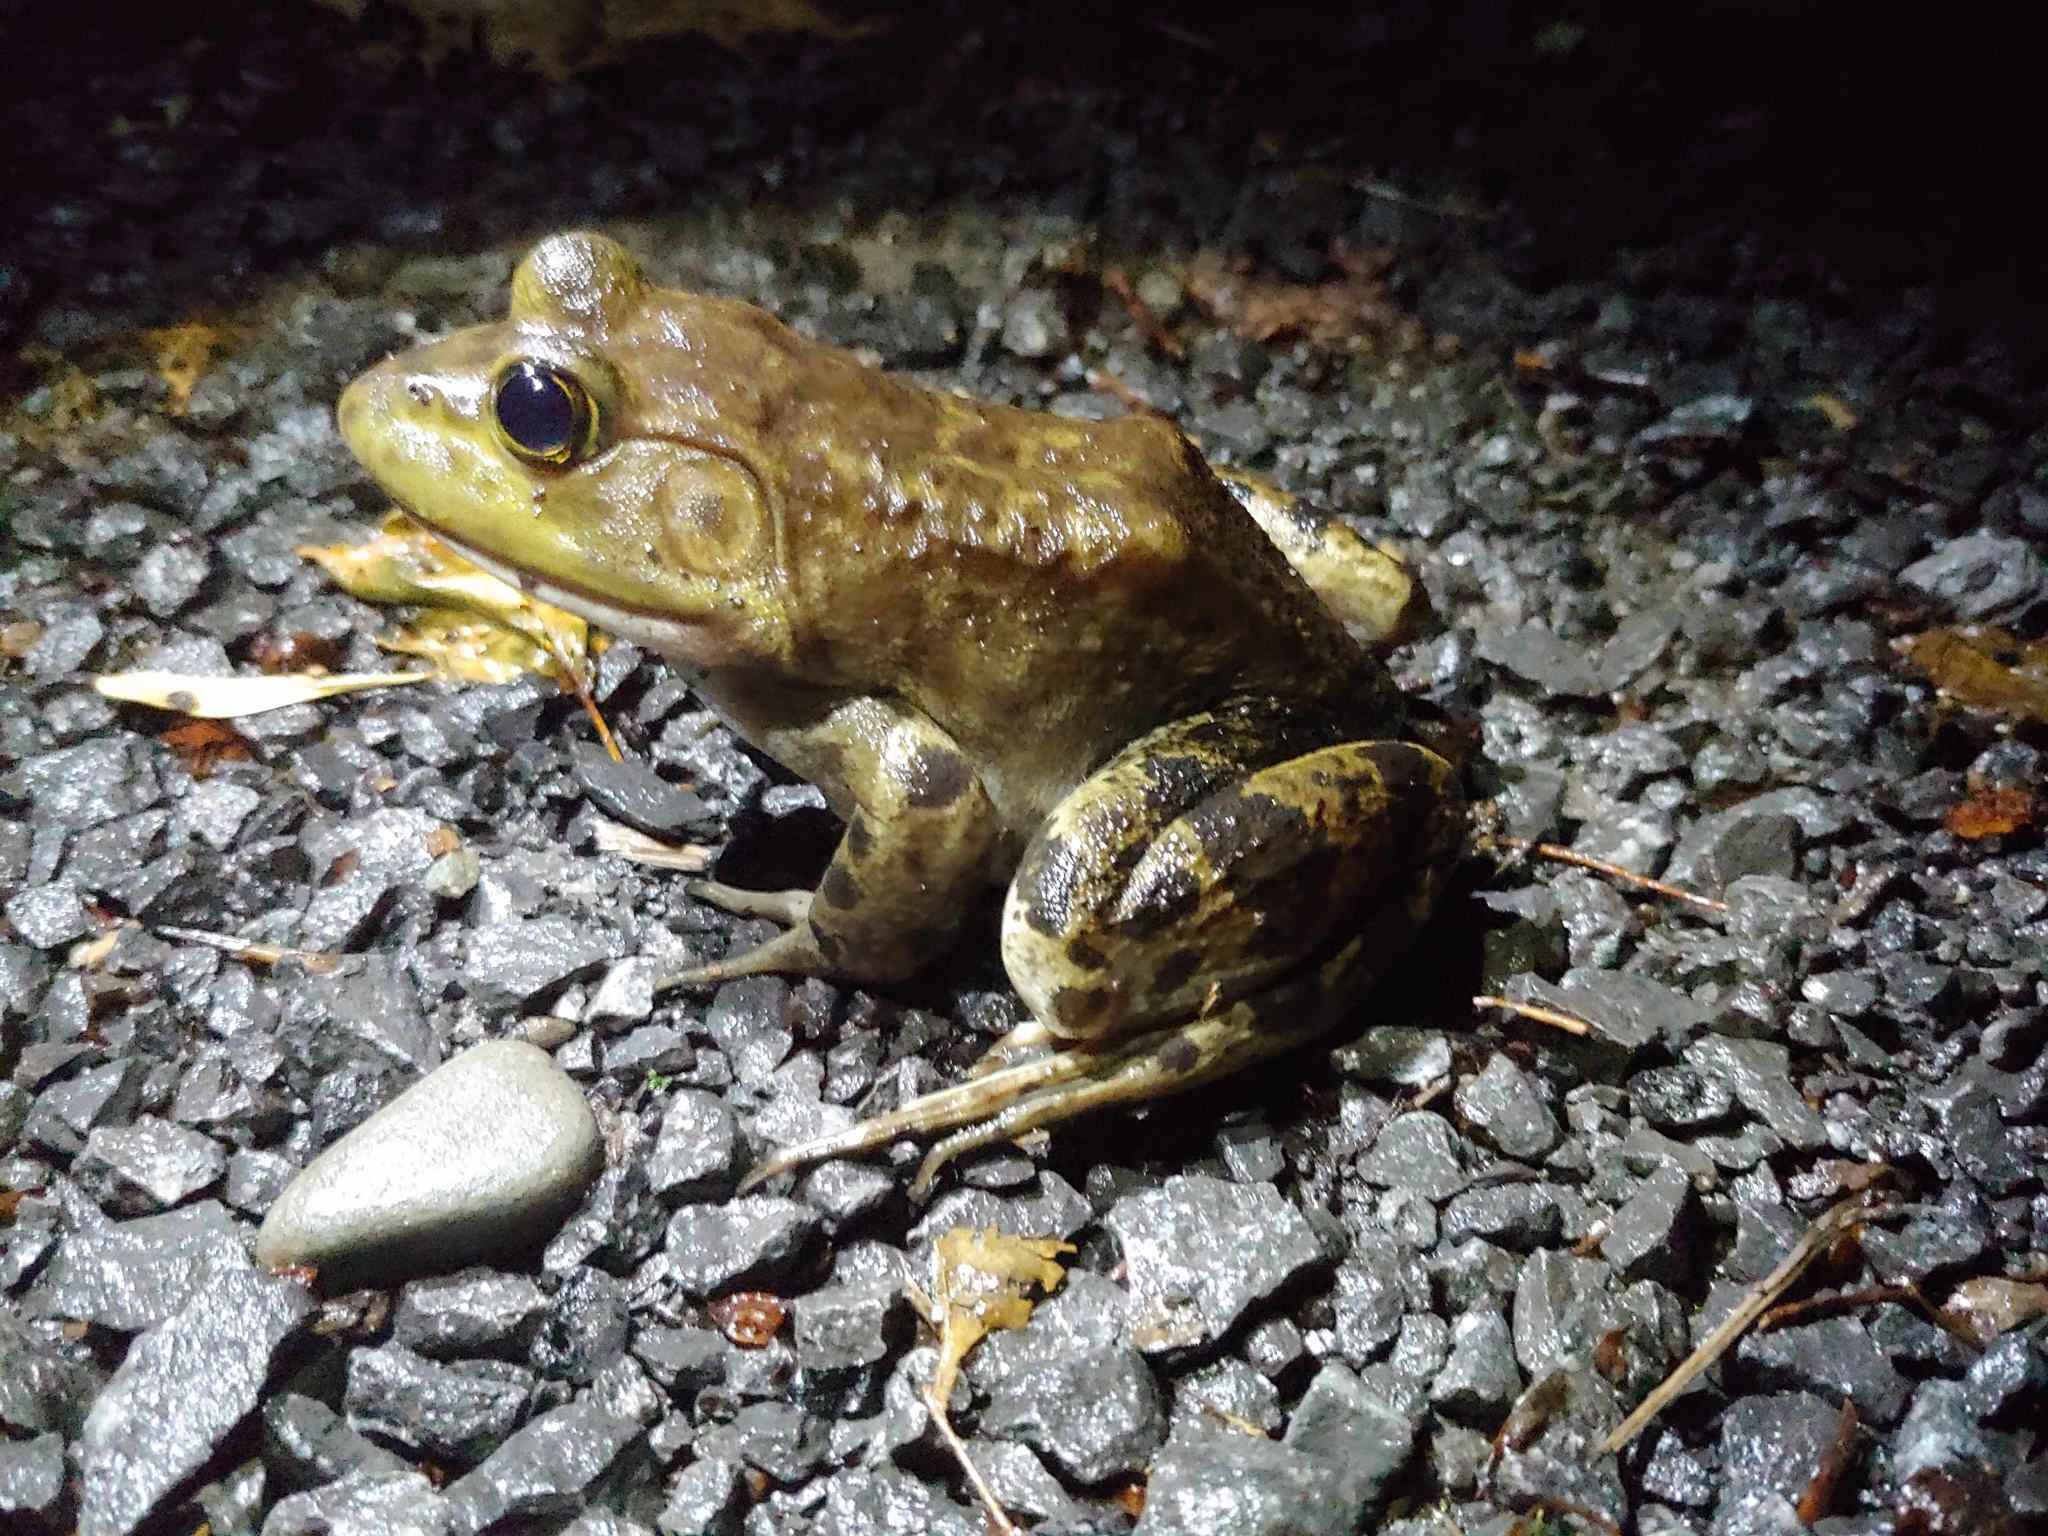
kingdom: Animalia
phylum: Chordata
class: Amphibia
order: Anura
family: Ranidae
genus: Lithobates
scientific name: Lithobates catesbeianus
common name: American bullfrog
